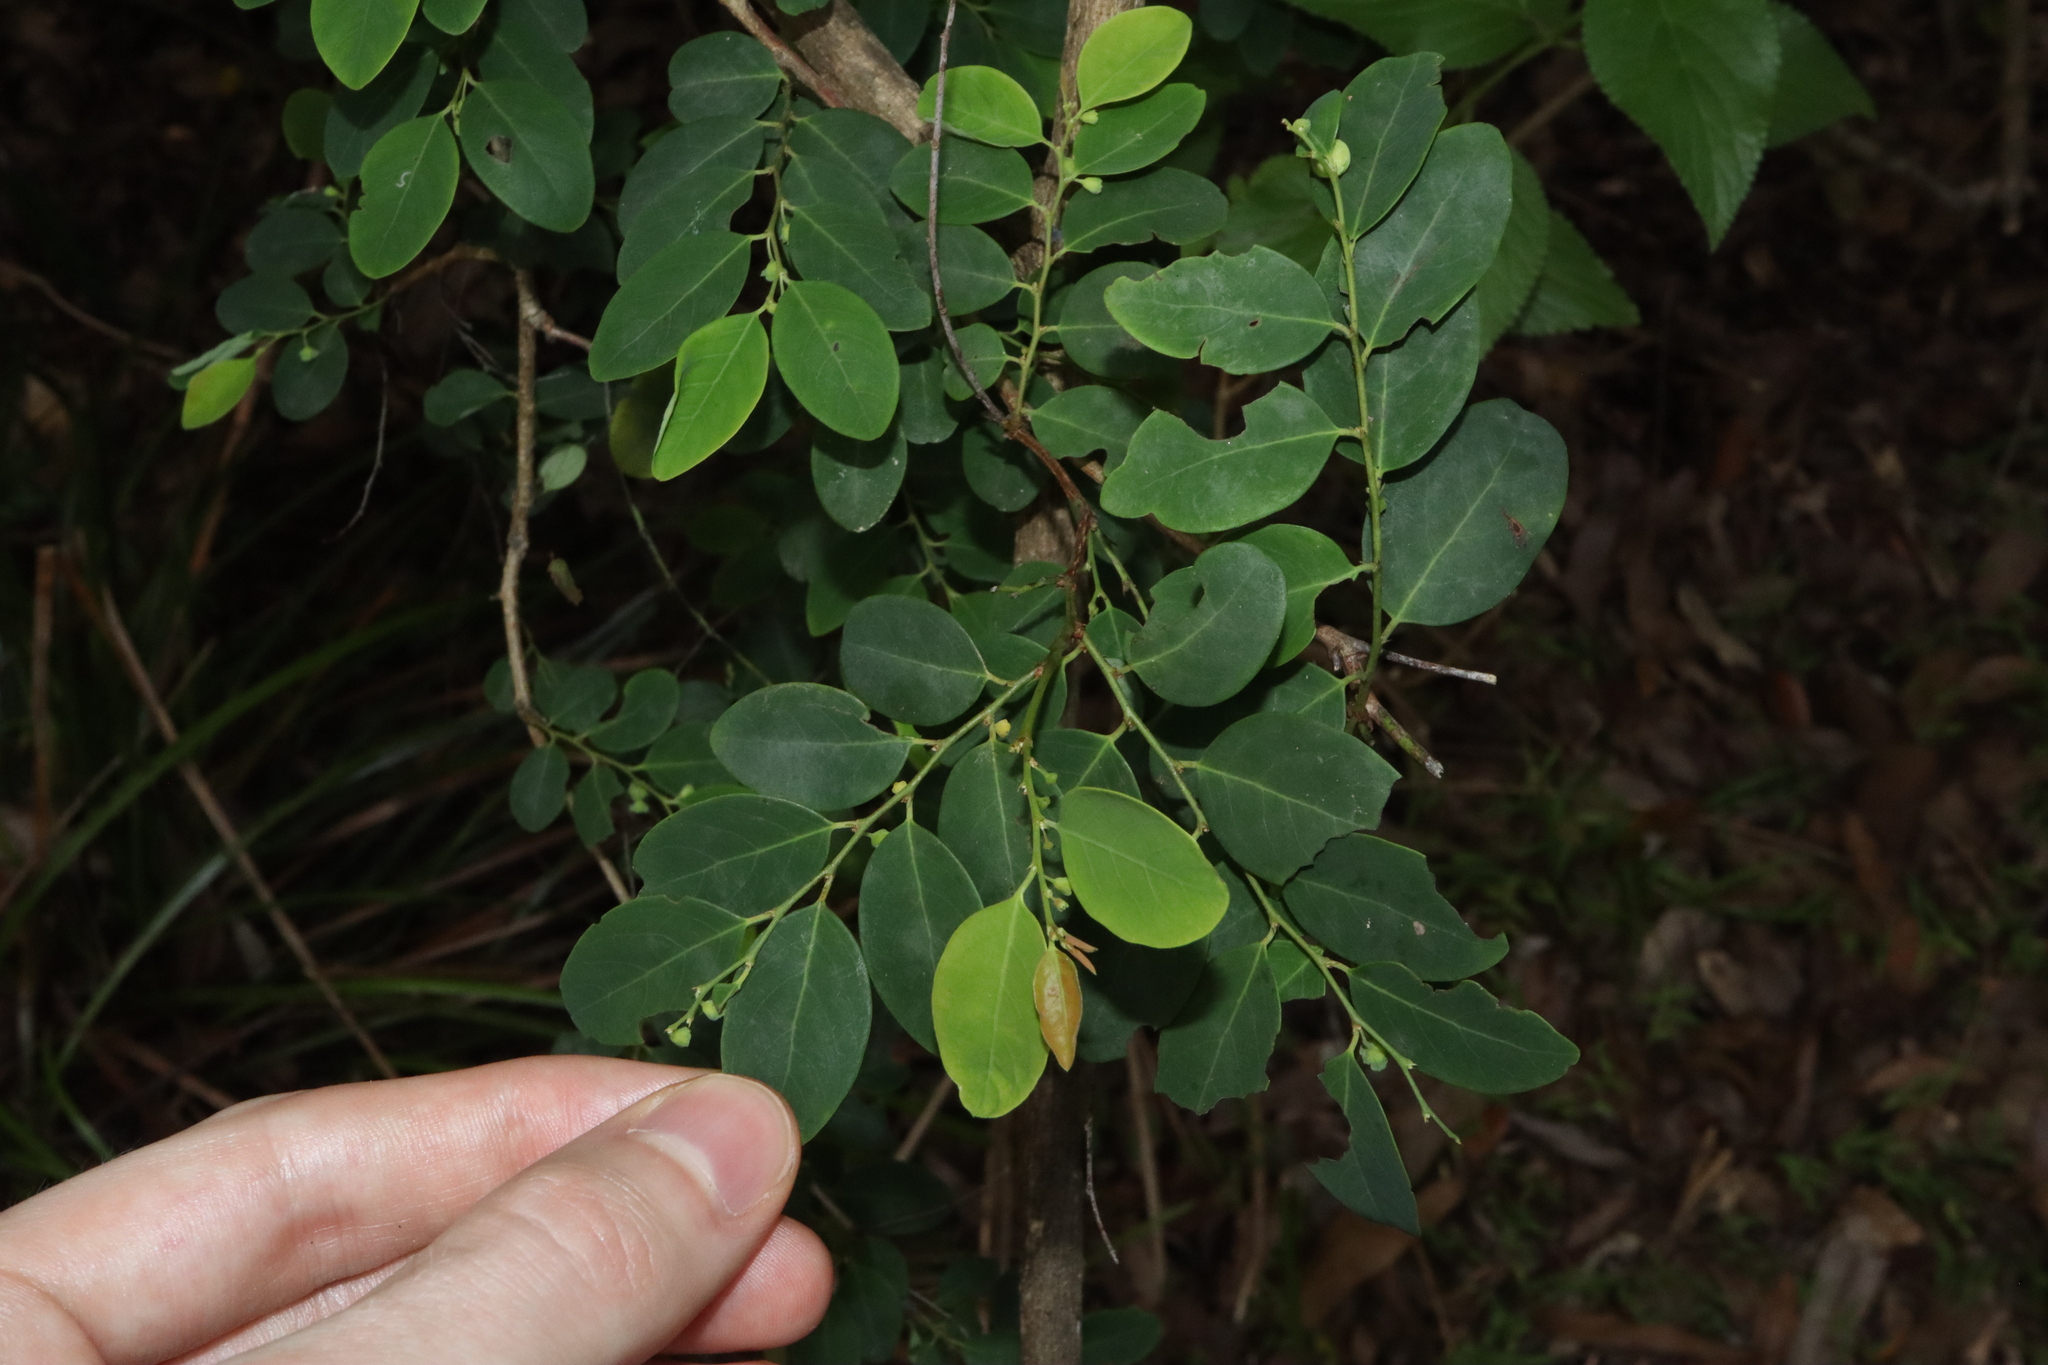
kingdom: Plantae
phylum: Tracheophyta
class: Magnoliopsida
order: Malpighiales
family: Phyllanthaceae
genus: Breynia
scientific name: Breynia oblongifolia
